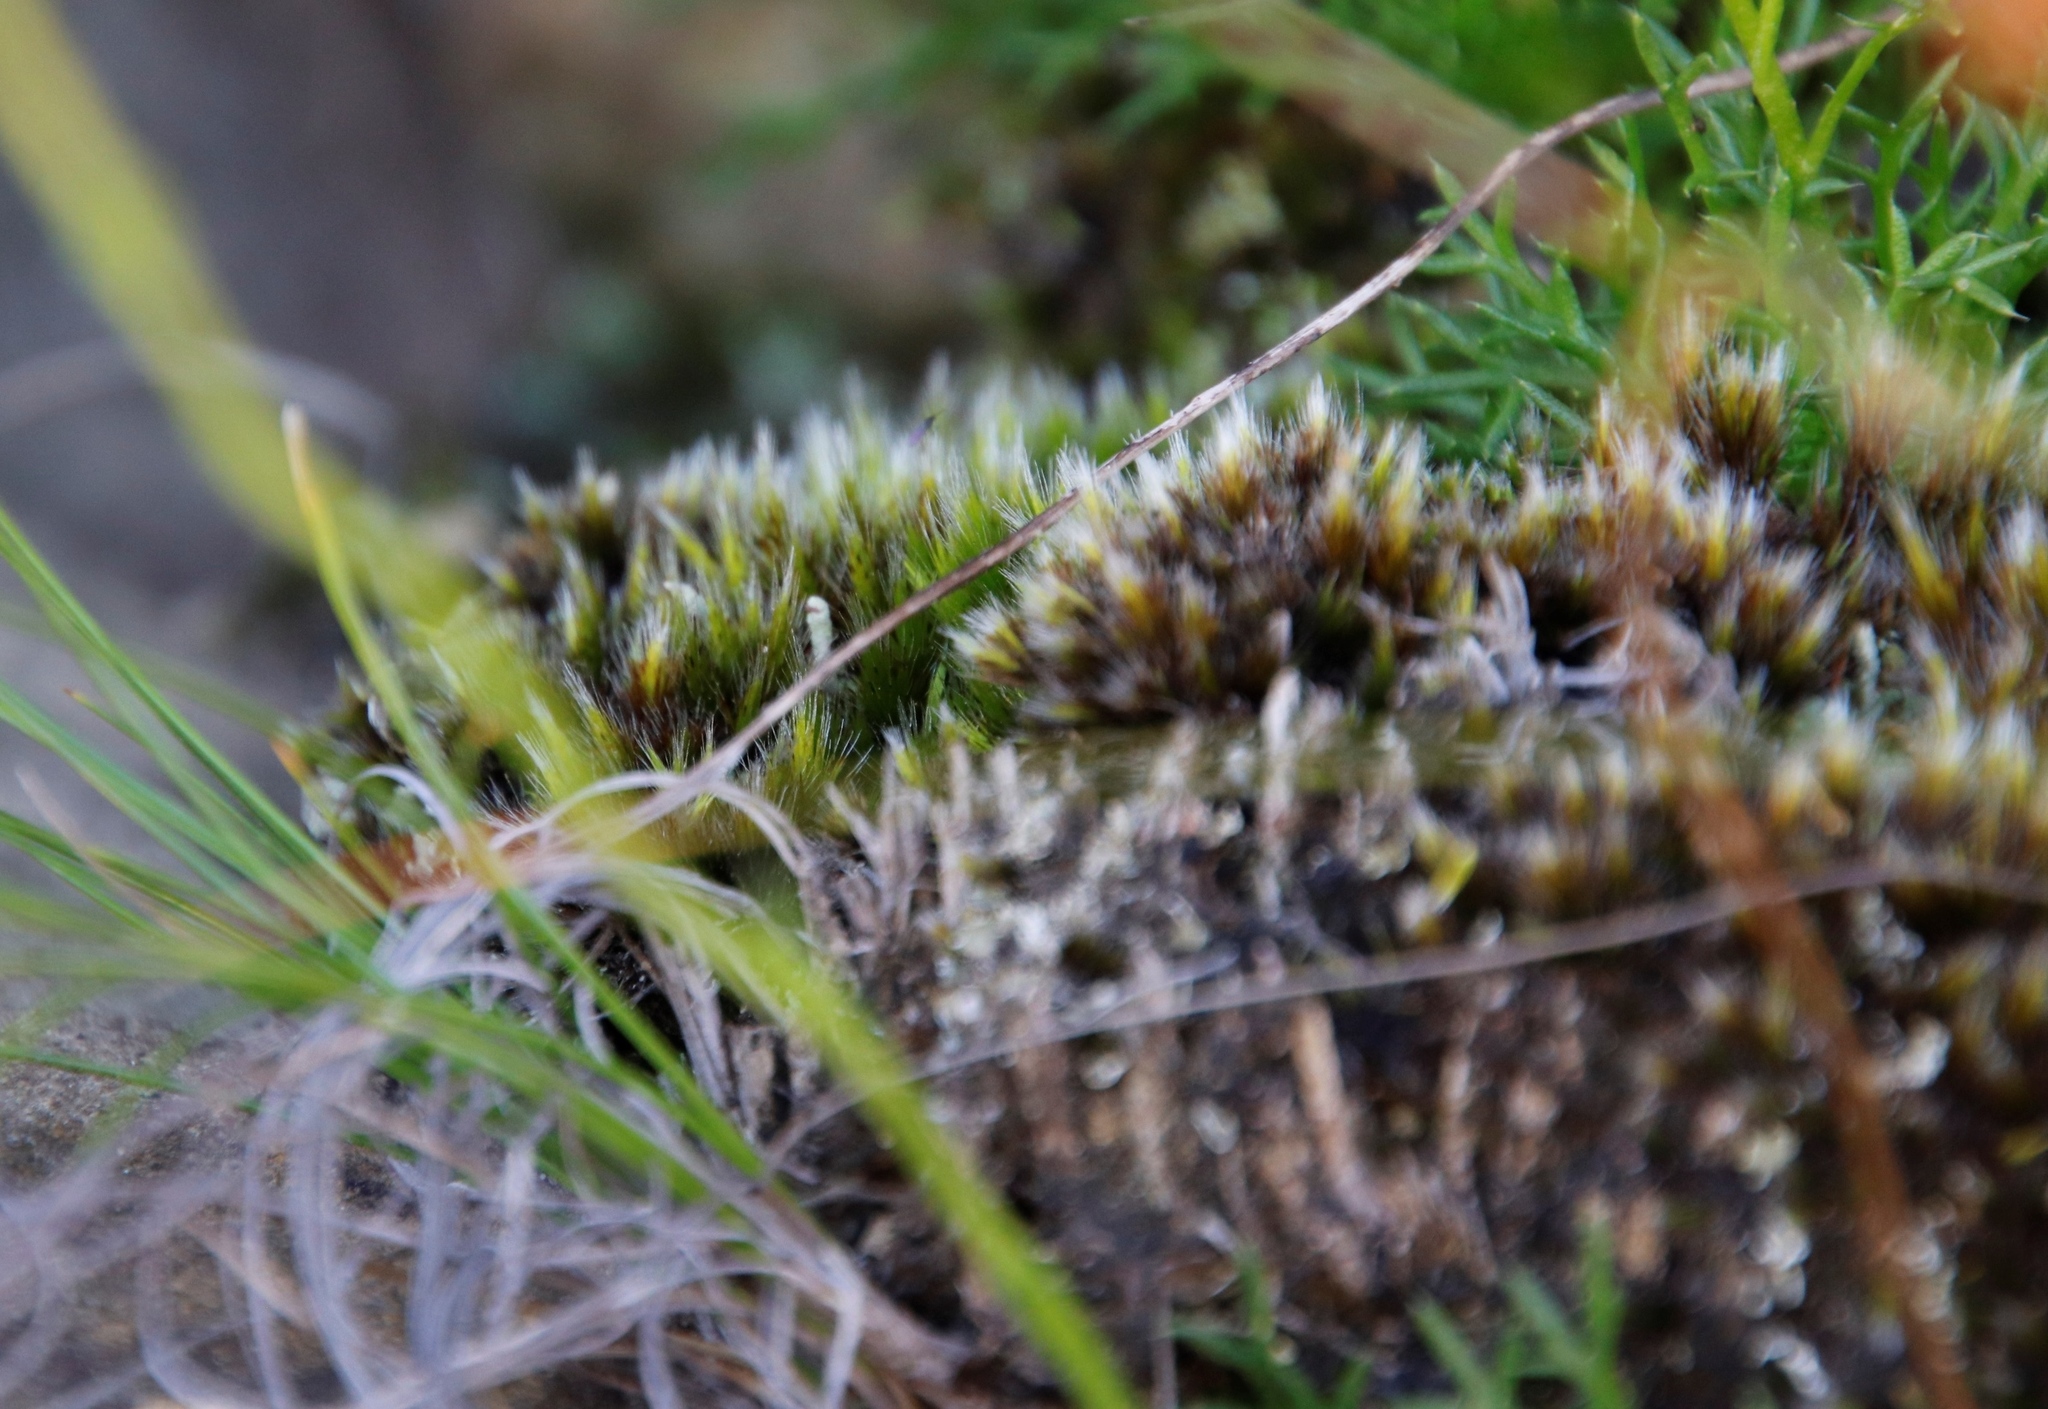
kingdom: Plantae
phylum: Bryophyta
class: Bryopsida
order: Dicranales
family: Leucobryaceae
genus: Campylopus
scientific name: Campylopus pilifer
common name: Campylopus moss
